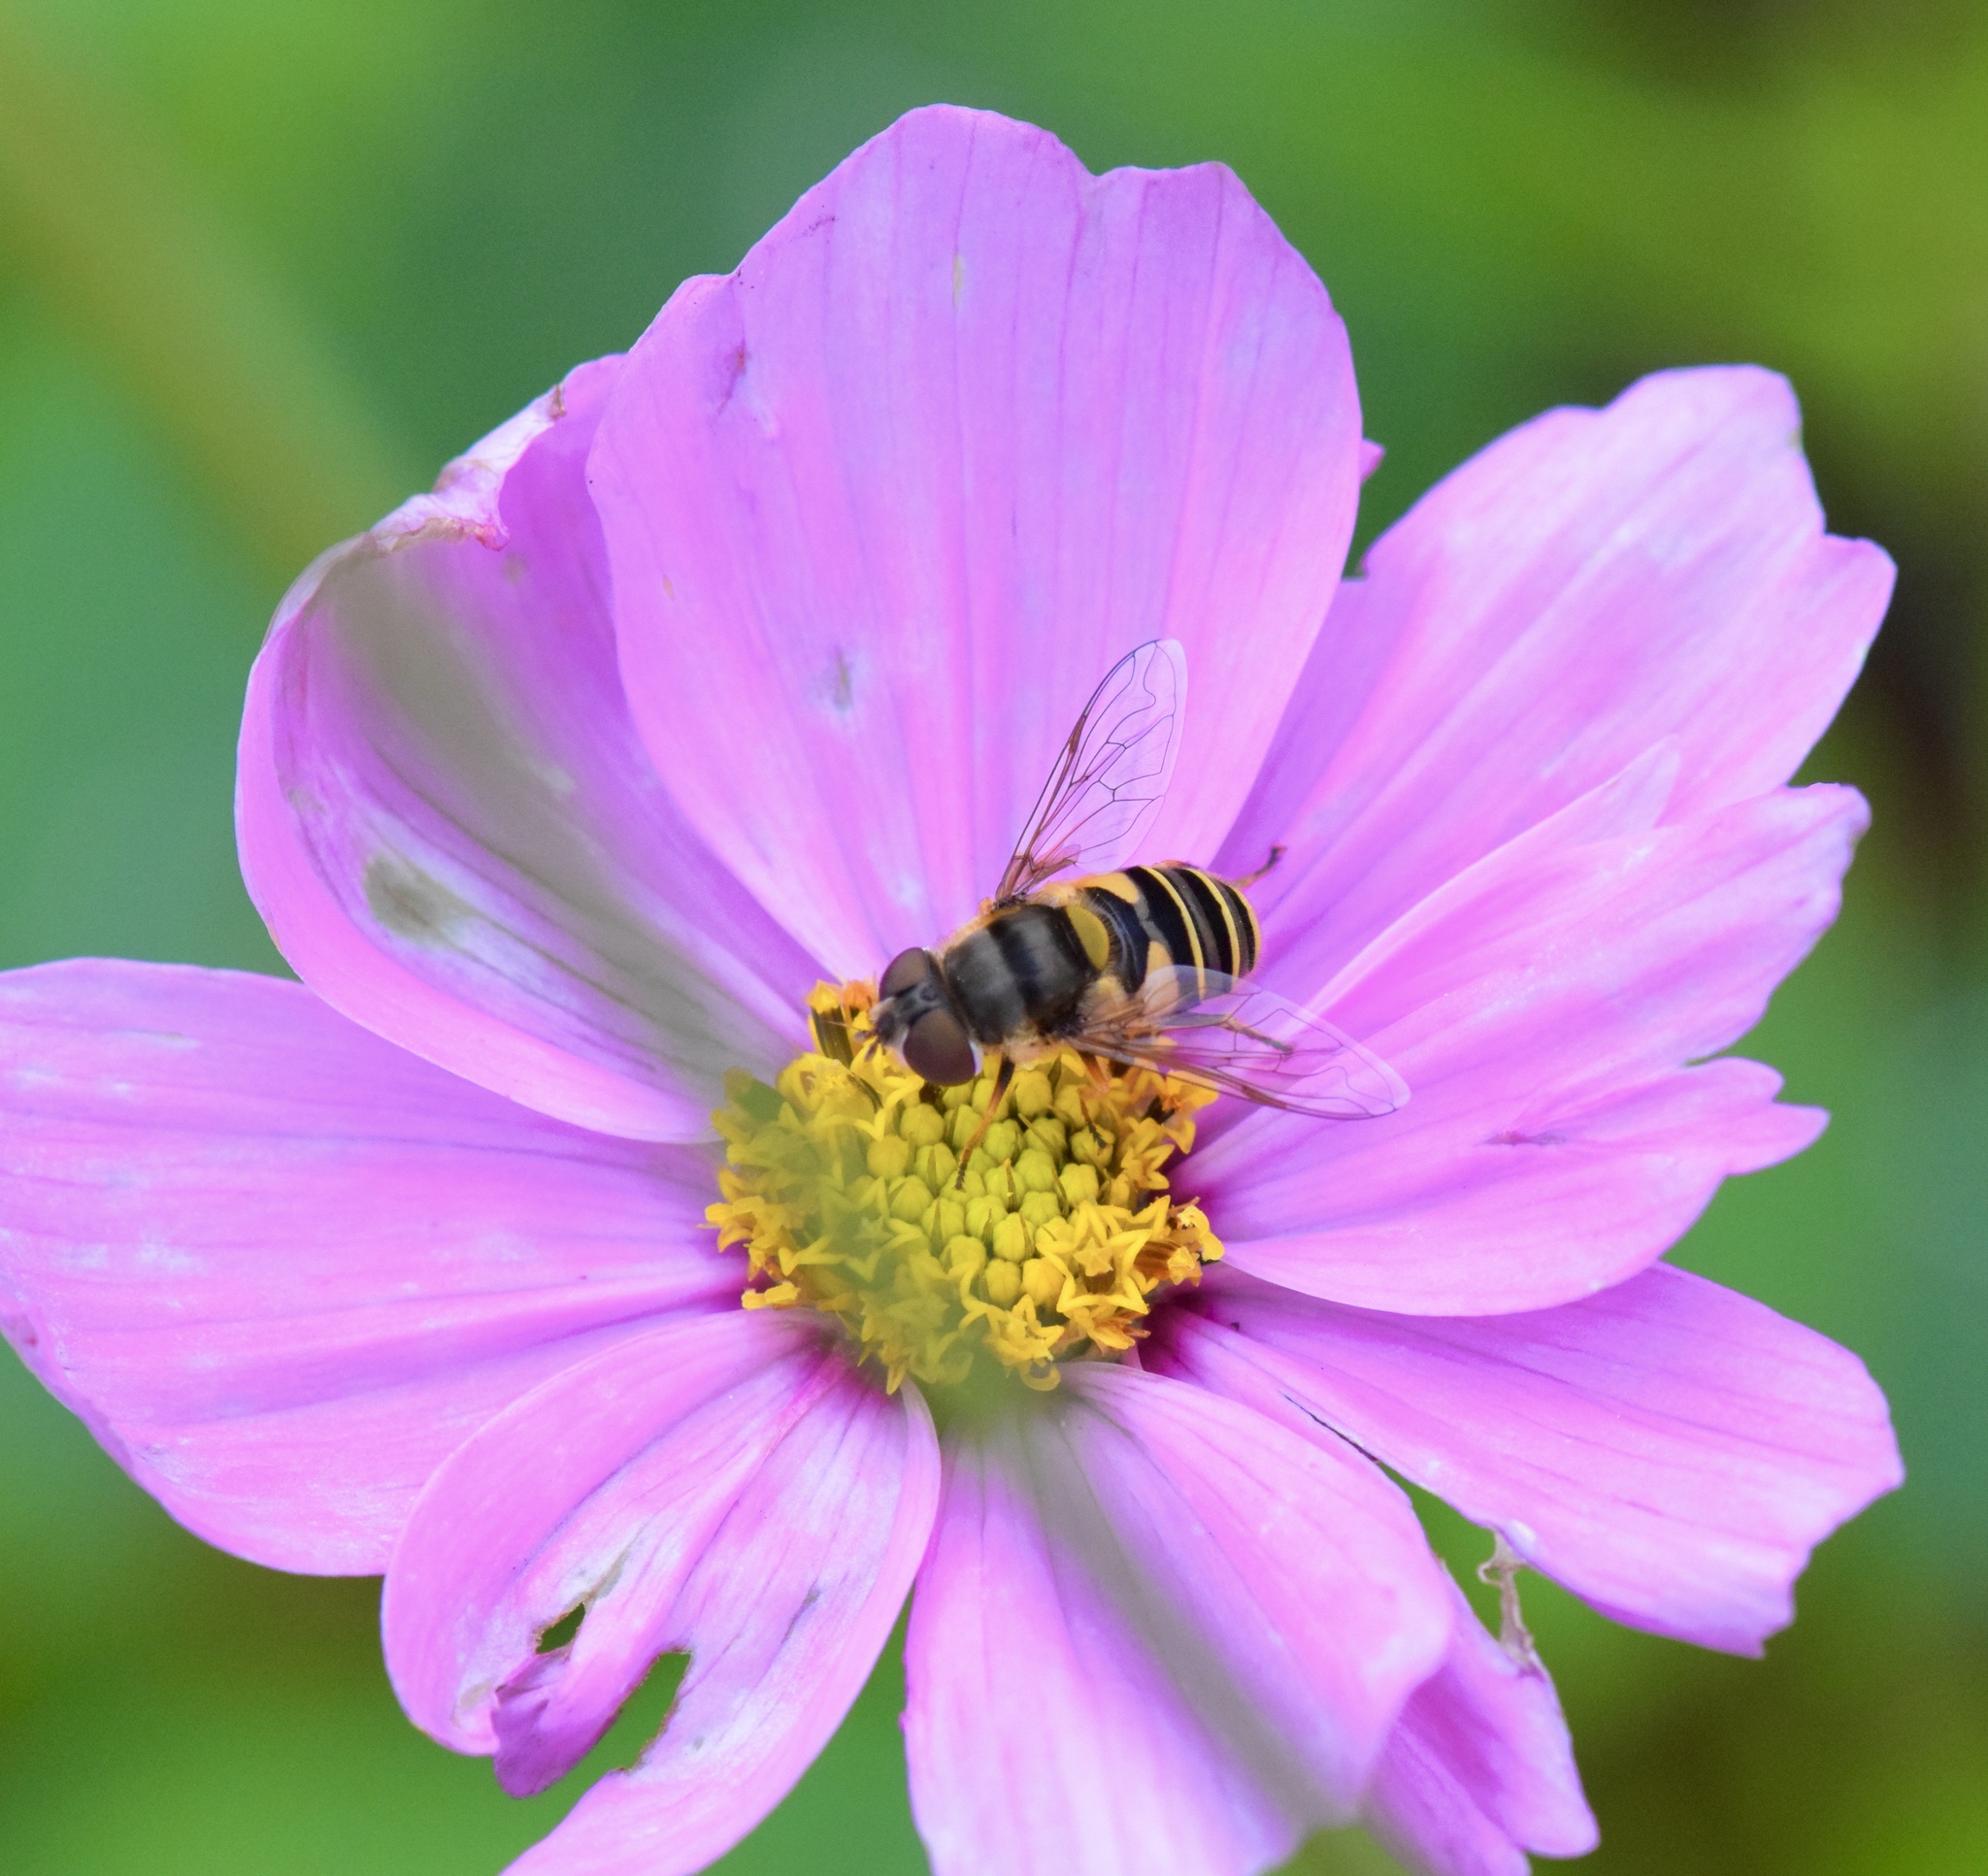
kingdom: Animalia
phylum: Arthropoda
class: Insecta
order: Diptera
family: Syrphidae
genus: Eristalis
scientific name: Eristalis transversa
